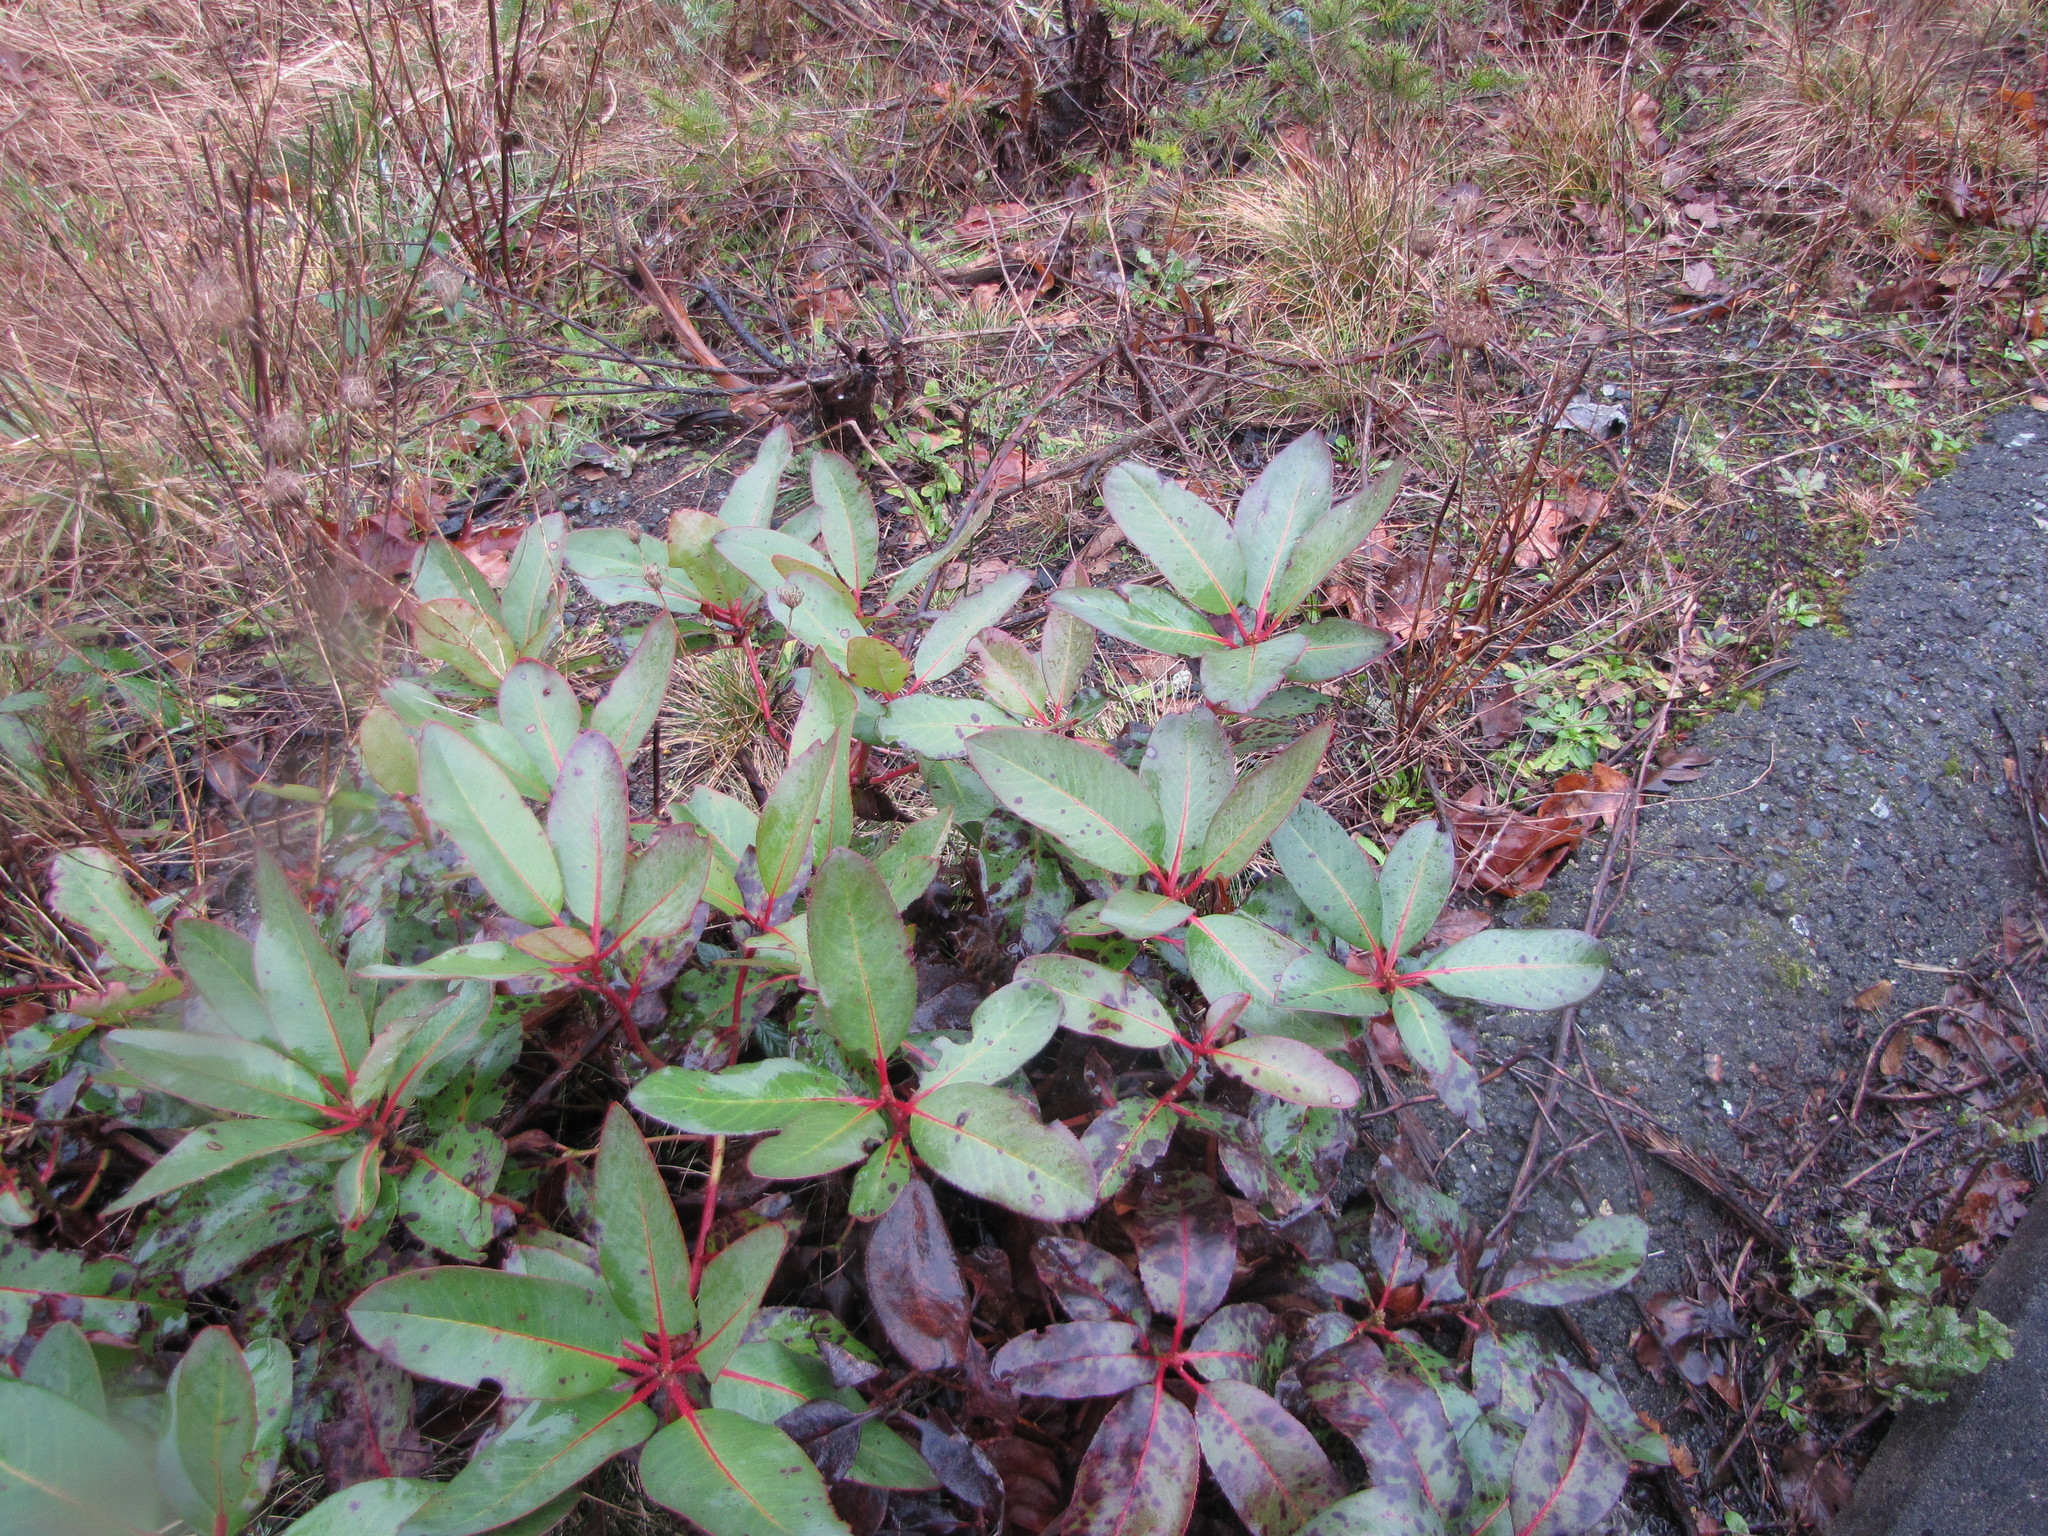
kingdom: Plantae
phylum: Tracheophyta
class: Magnoliopsida
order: Ericales
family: Ericaceae
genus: Arbutus
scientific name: Arbutus menziesii
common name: Pacific madrone
